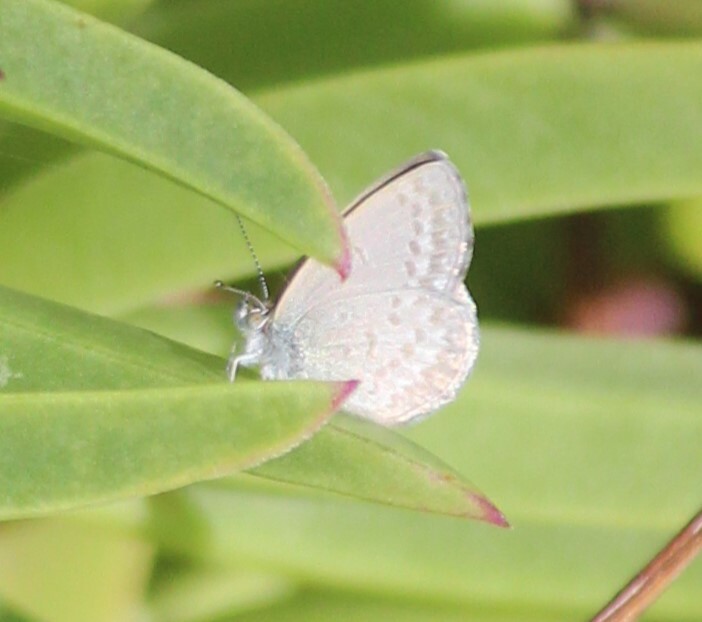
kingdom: Animalia
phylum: Arthropoda
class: Insecta
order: Lepidoptera
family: Lycaenidae
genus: Zizina
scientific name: Zizina otis
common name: Lesser grass blue
